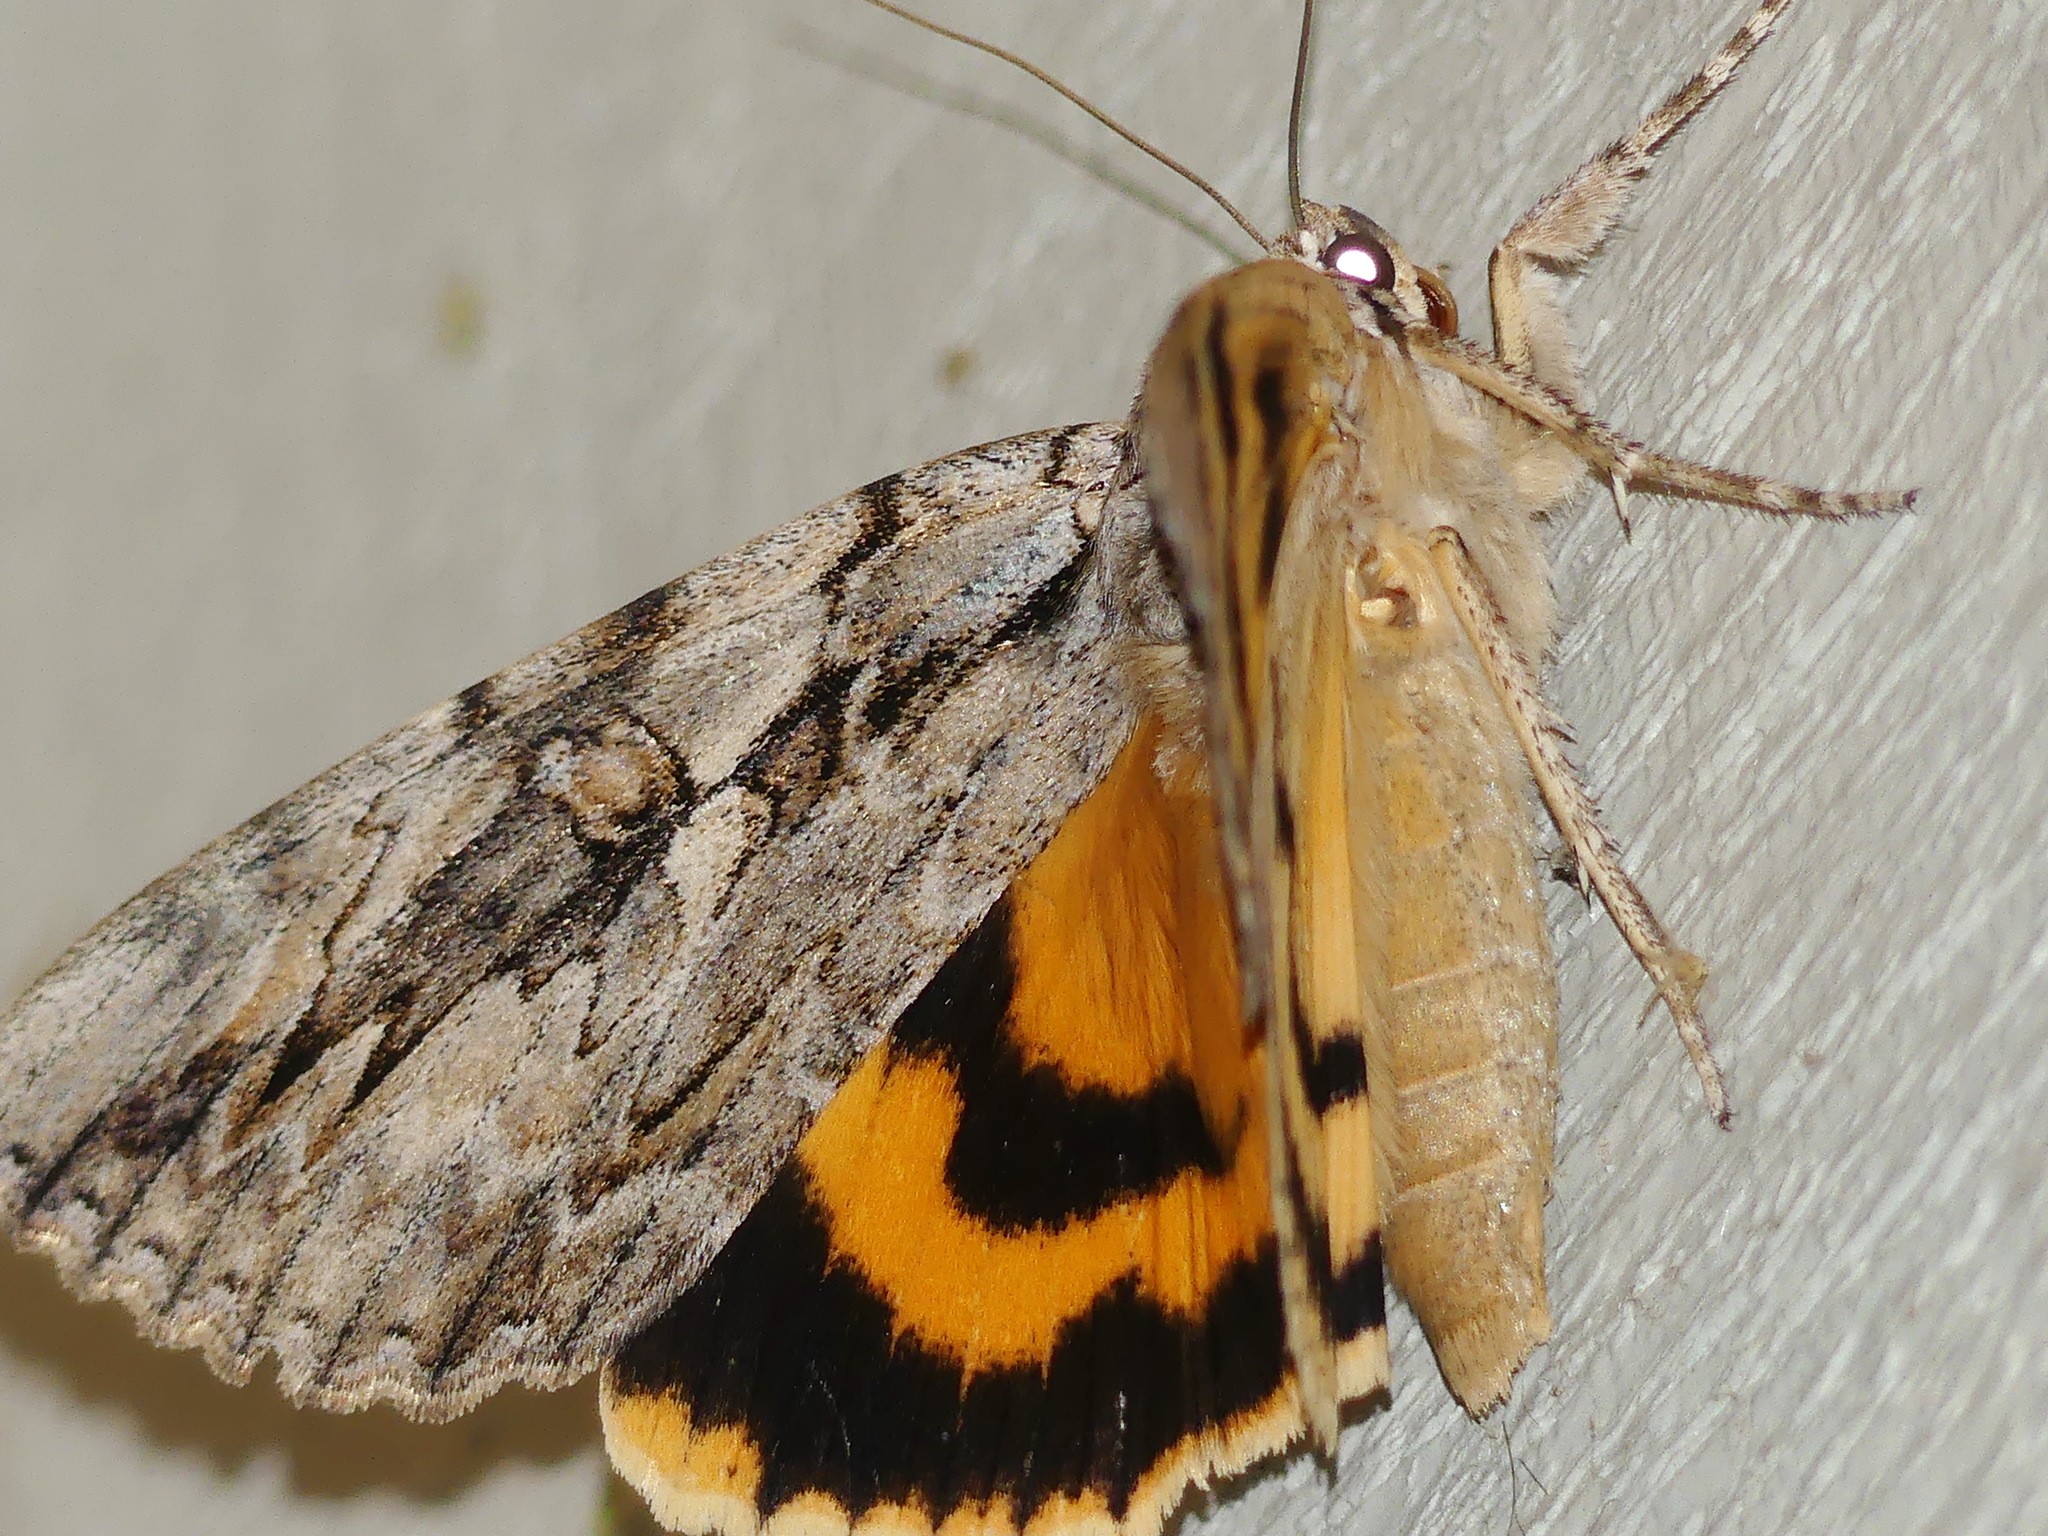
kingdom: Animalia
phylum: Arthropoda
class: Insecta
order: Lepidoptera
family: Erebidae
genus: Catocala
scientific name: Catocala subnata
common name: Youthful underwing
